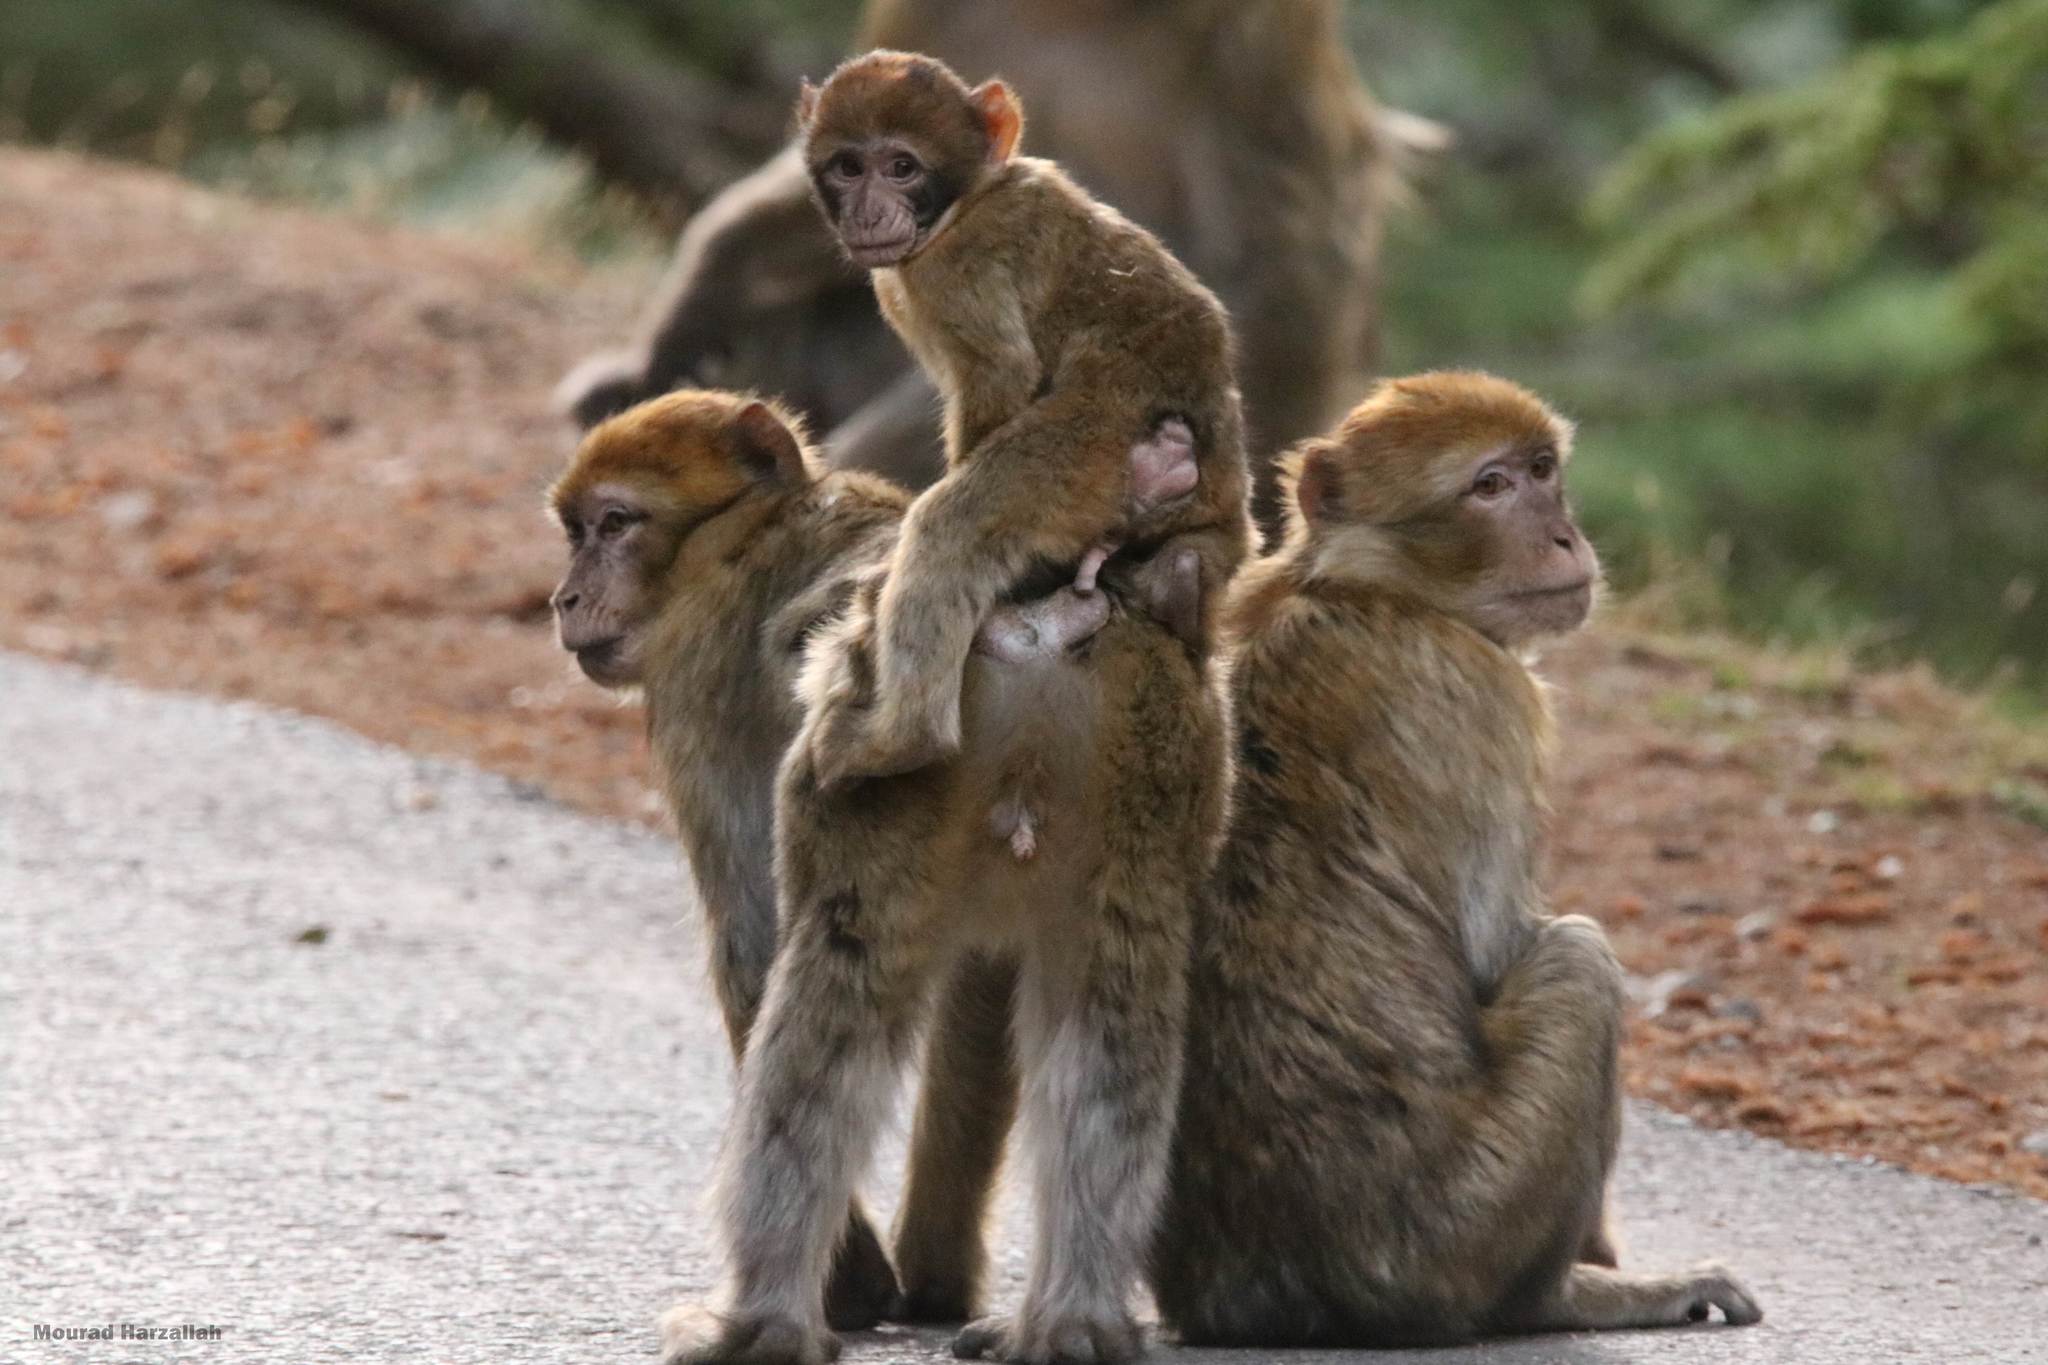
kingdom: Animalia
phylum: Chordata
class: Mammalia
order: Primates
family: Cercopithecidae
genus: Macaca
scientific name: Macaca sylvanus
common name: Barbary macaque
